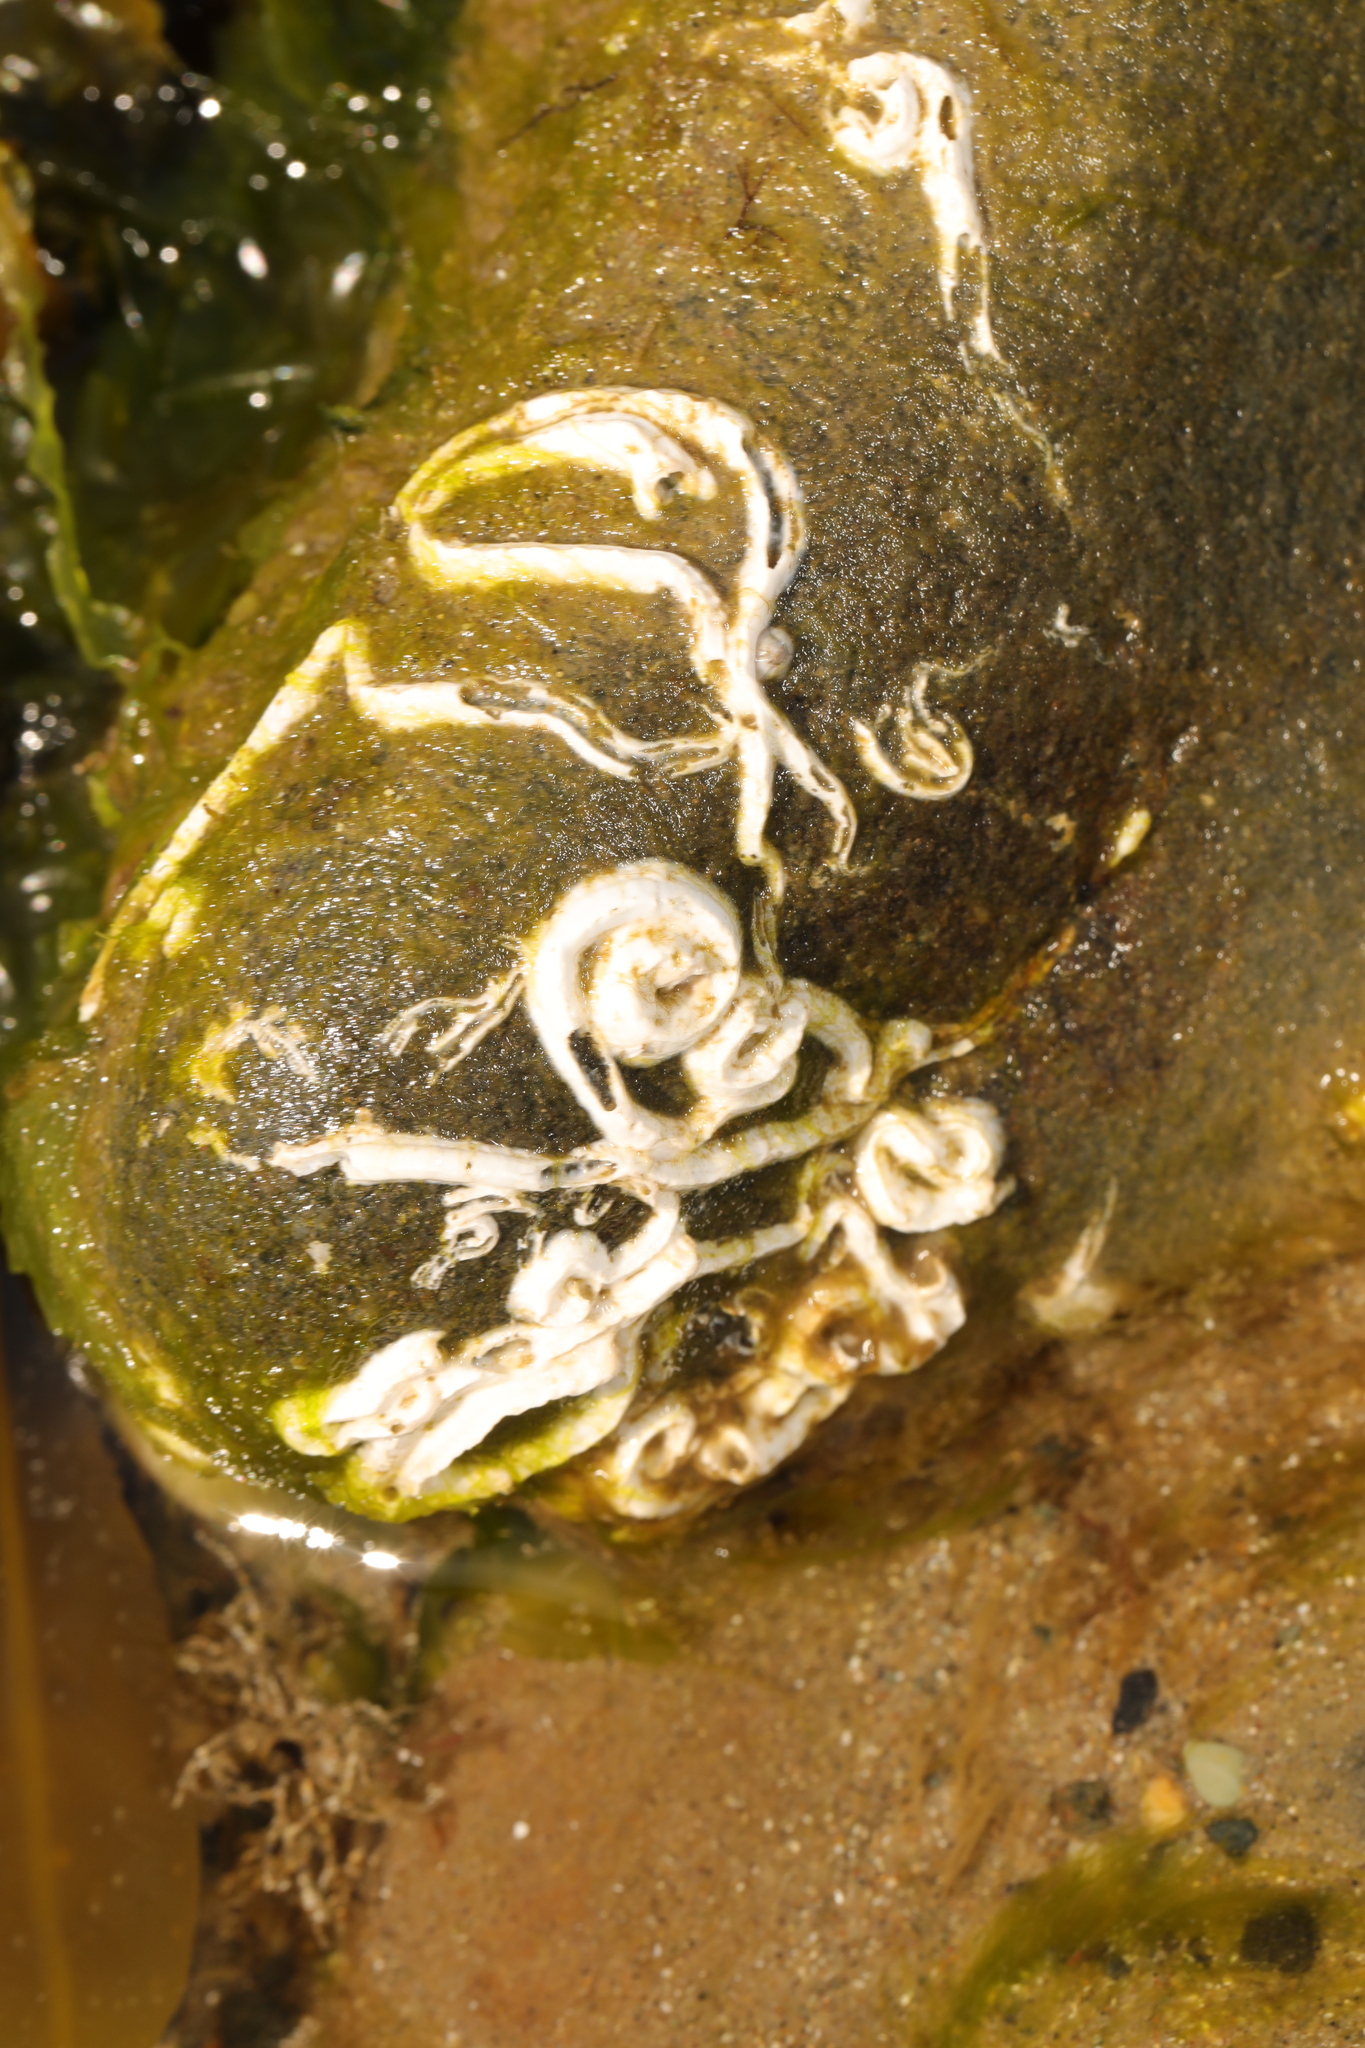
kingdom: Animalia
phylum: Annelida
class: Polychaeta
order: Sabellida
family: Serpulidae
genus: Spirobranchus
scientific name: Spirobranchus triqueter
